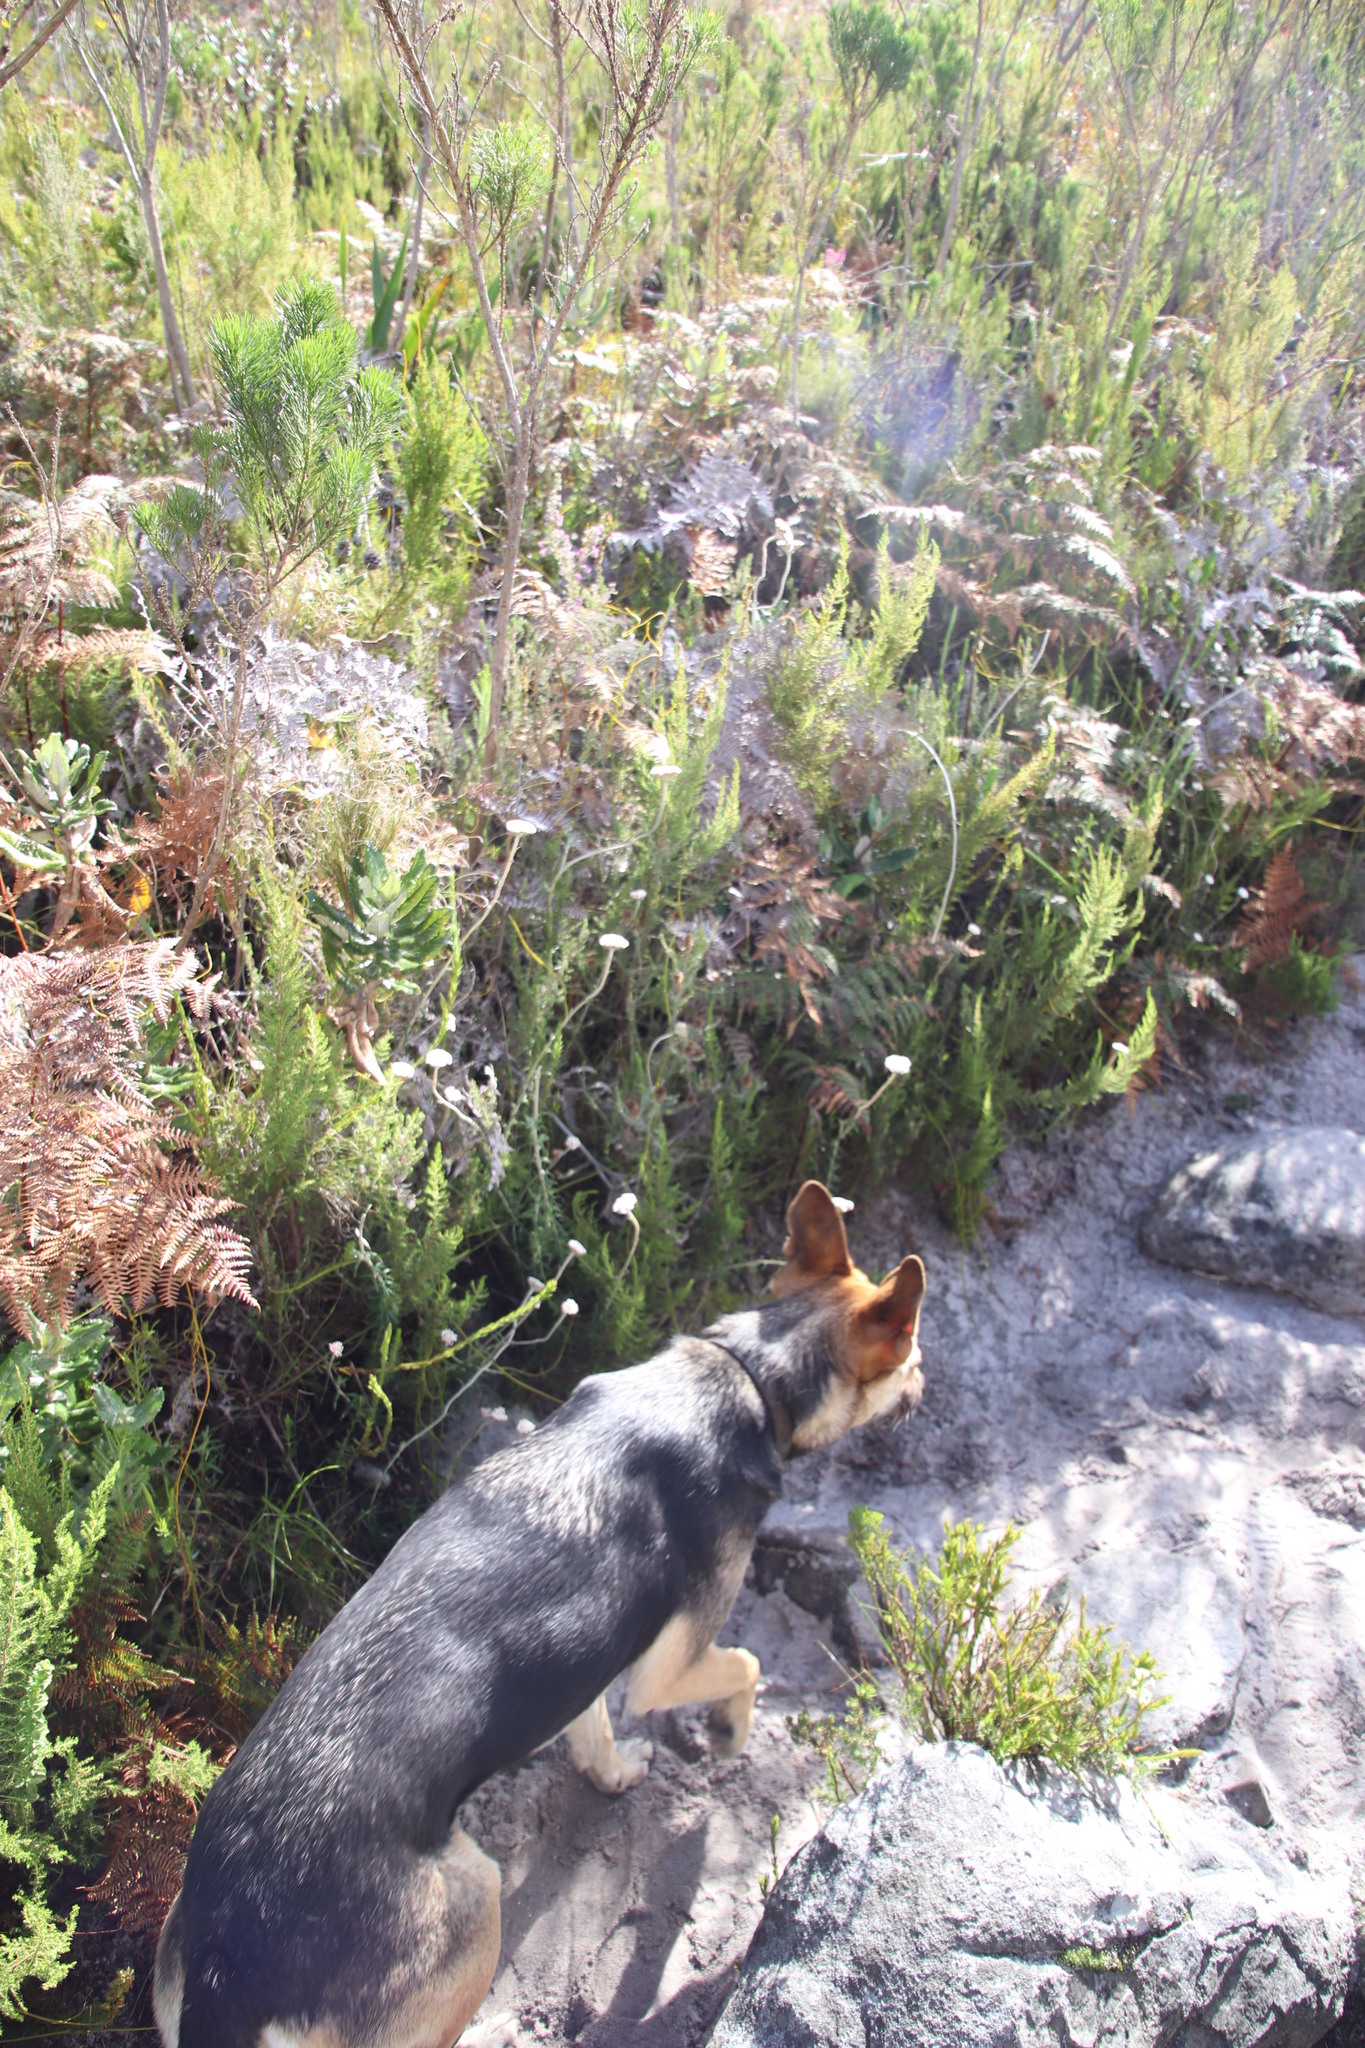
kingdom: Plantae
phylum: Tracheophyta
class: Magnoliopsida
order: Asterales
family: Asteraceae
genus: Anaxeton
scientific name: Anaxeton arborescens
